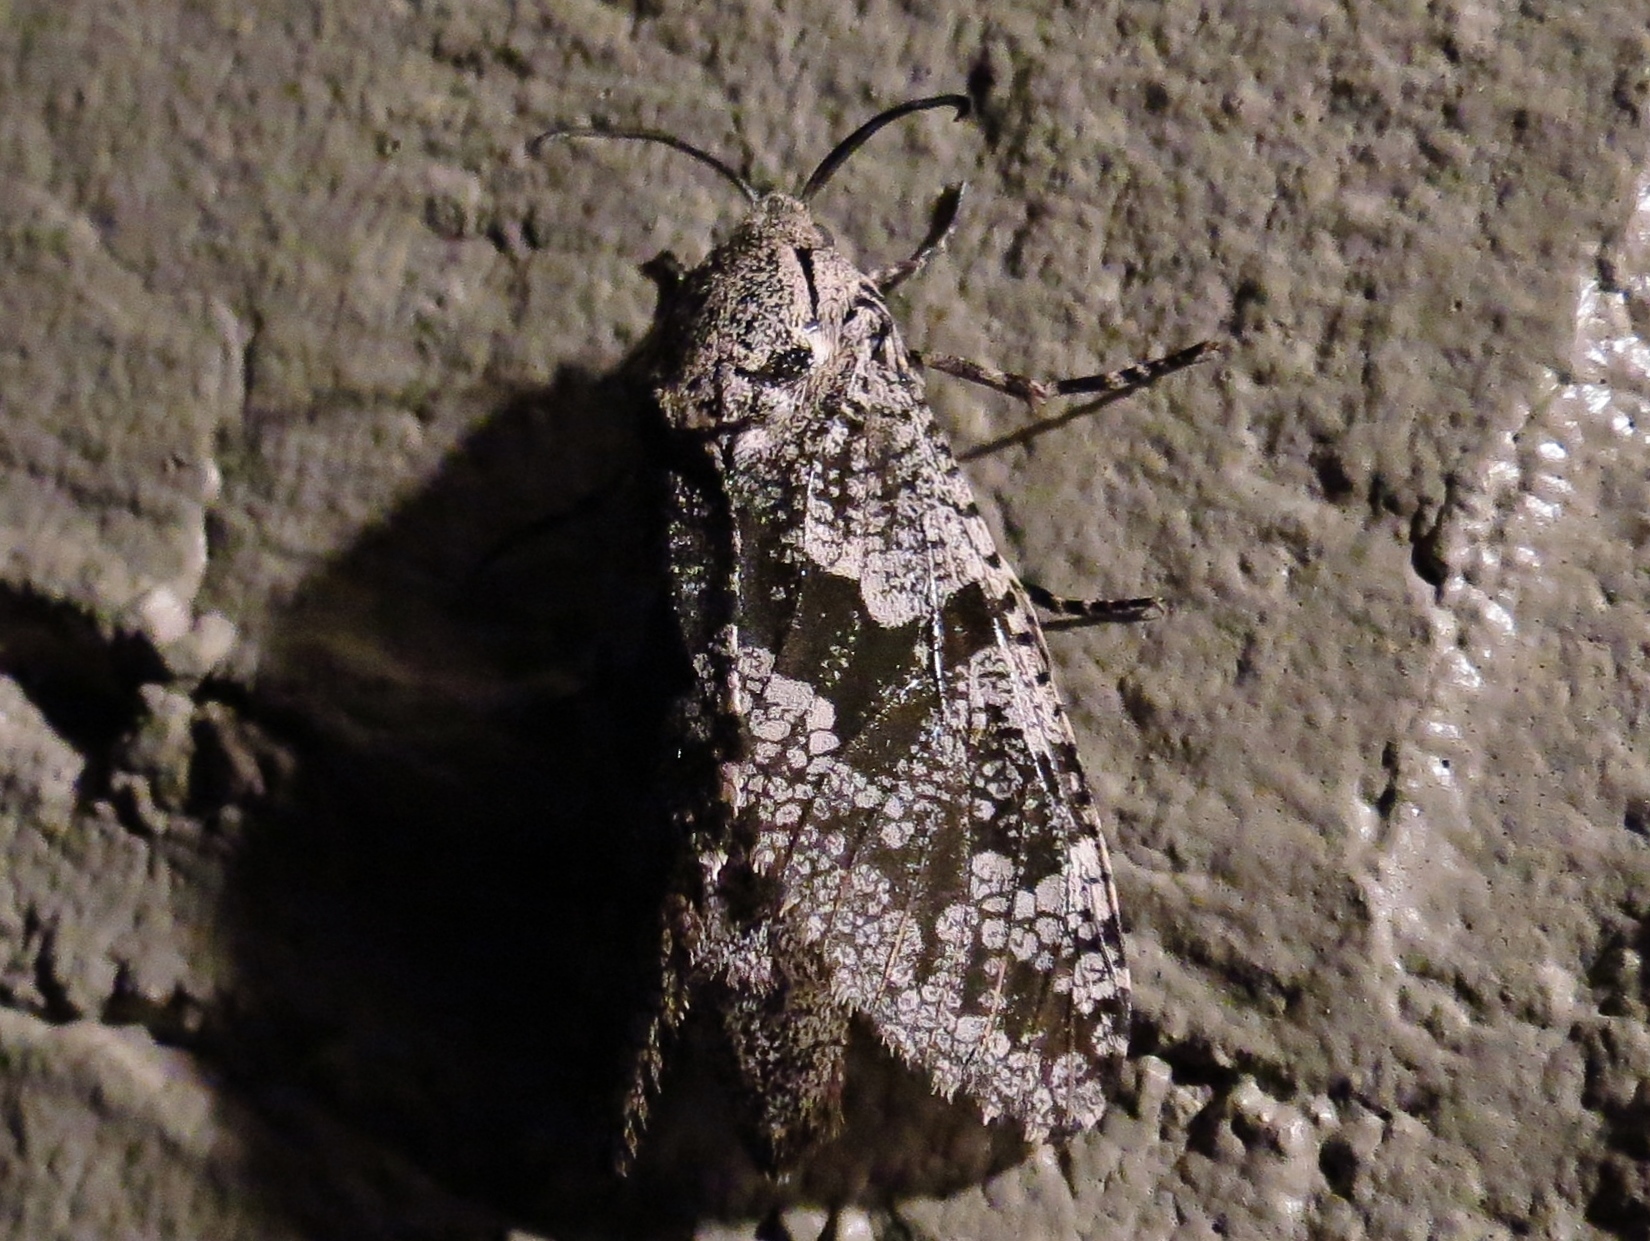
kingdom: Animalia
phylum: Arthropoda
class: Insecta
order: Lepidoptera
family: Cossidae
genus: Prionoxystus
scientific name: Prionoxystus robiniae
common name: Carpenterworm
